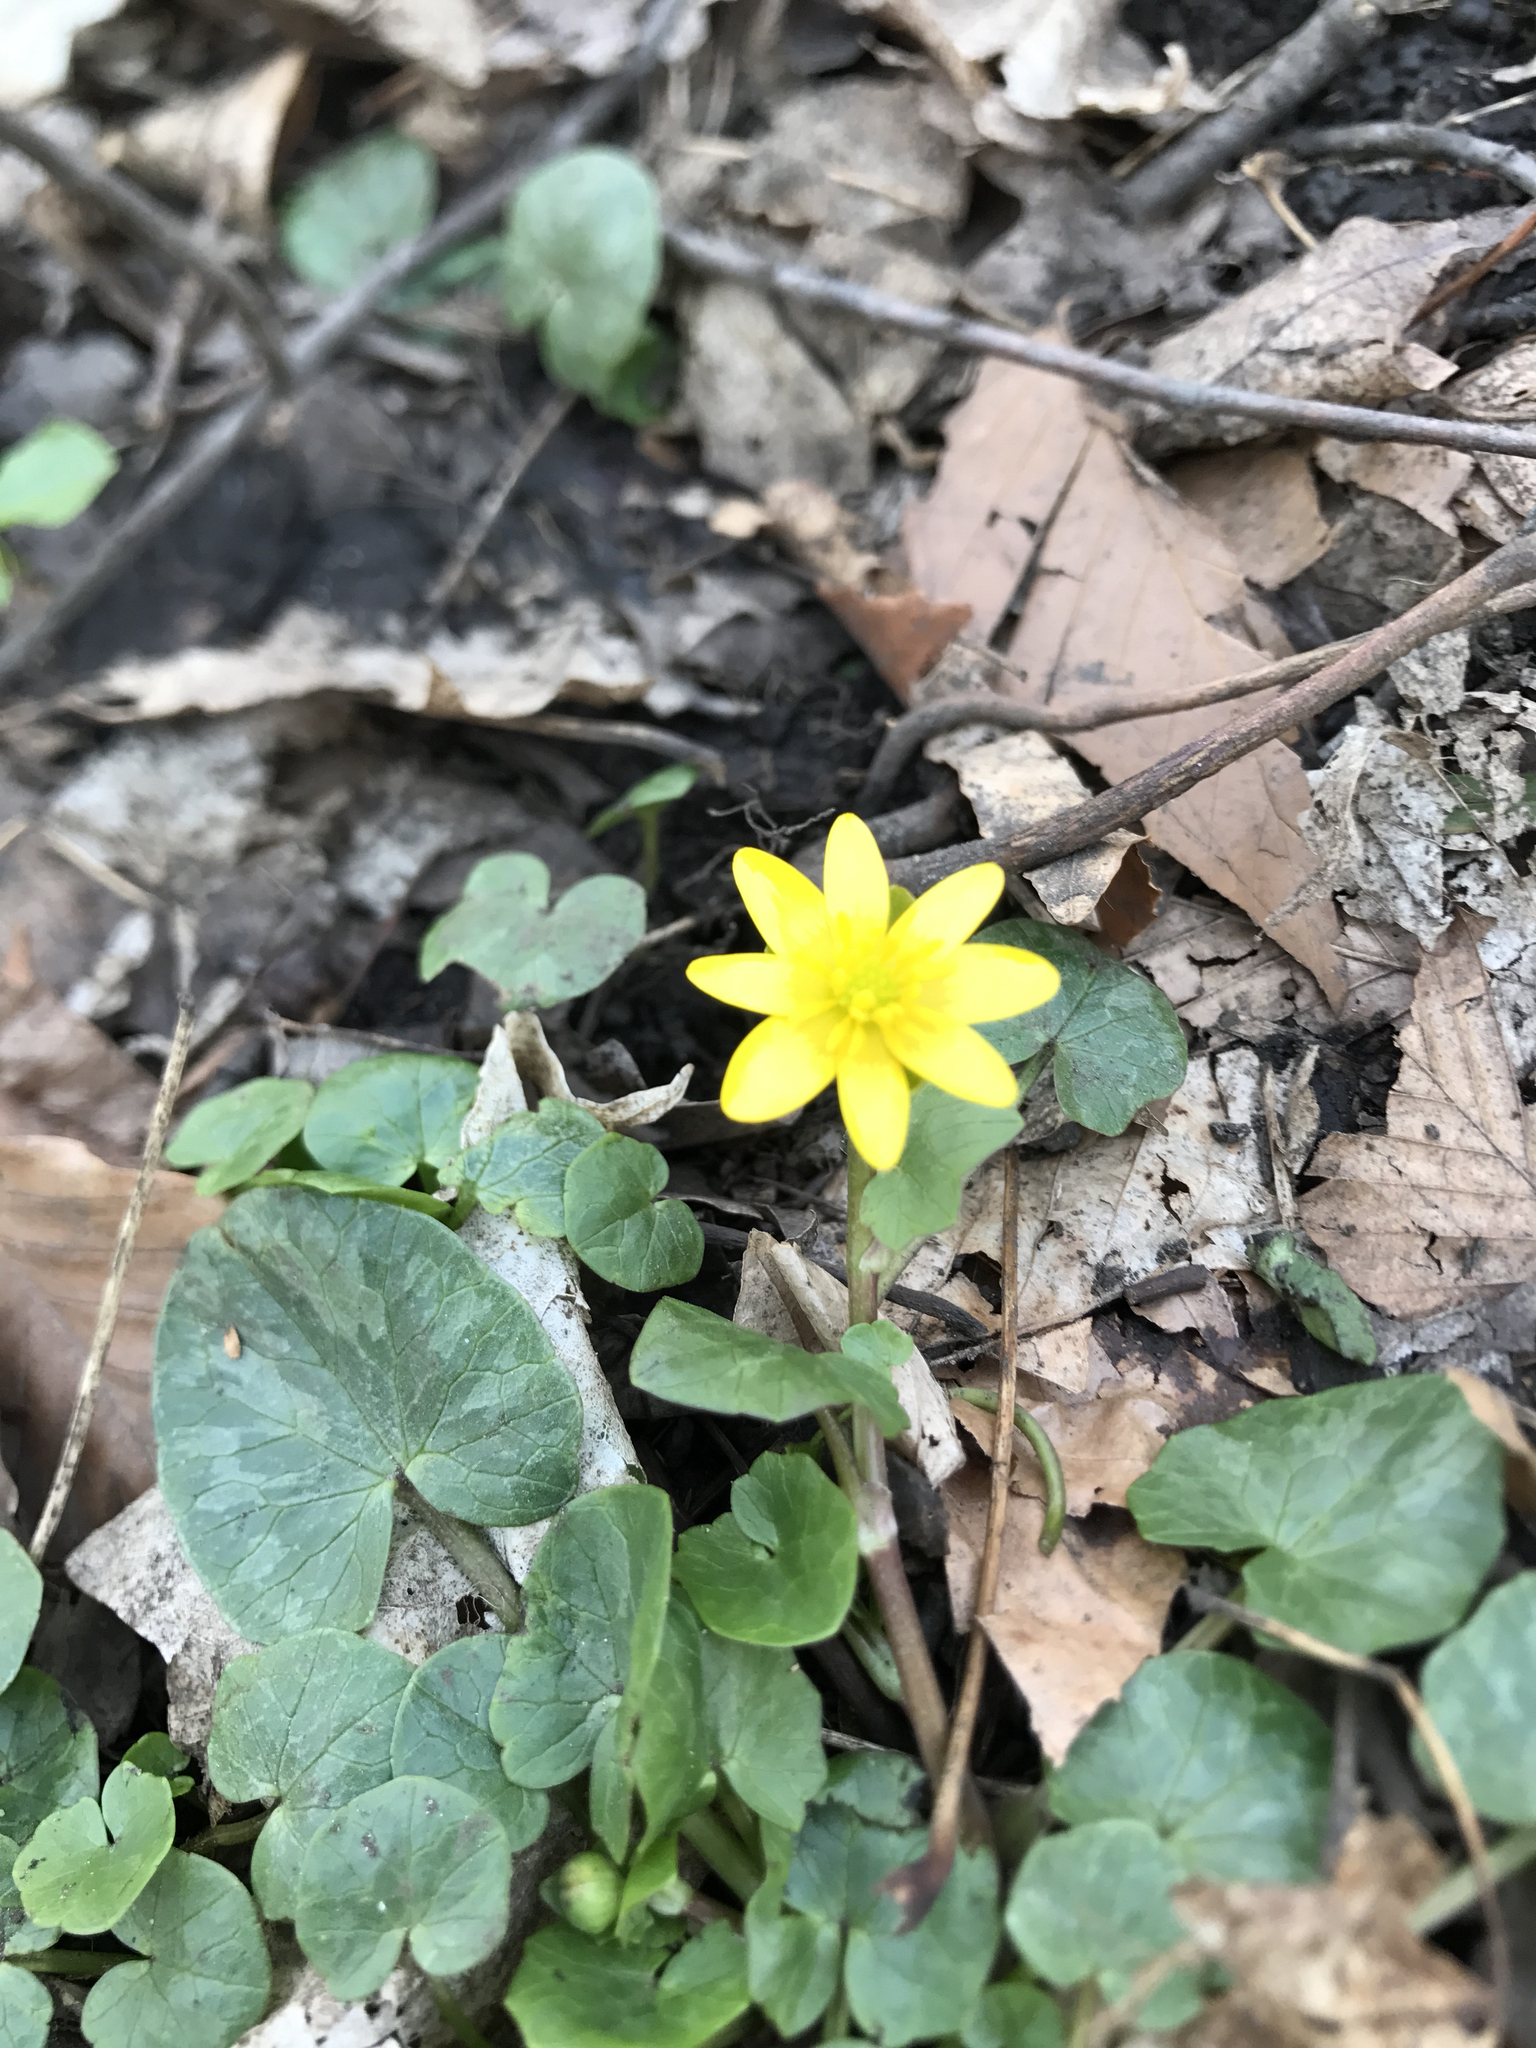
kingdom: Plantae
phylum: Tracheophyta
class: Magnoliopsida
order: Ranunculales
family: Ranunculaceae
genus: Ficaria
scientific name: Ficaria verna
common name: Lesser celandine
